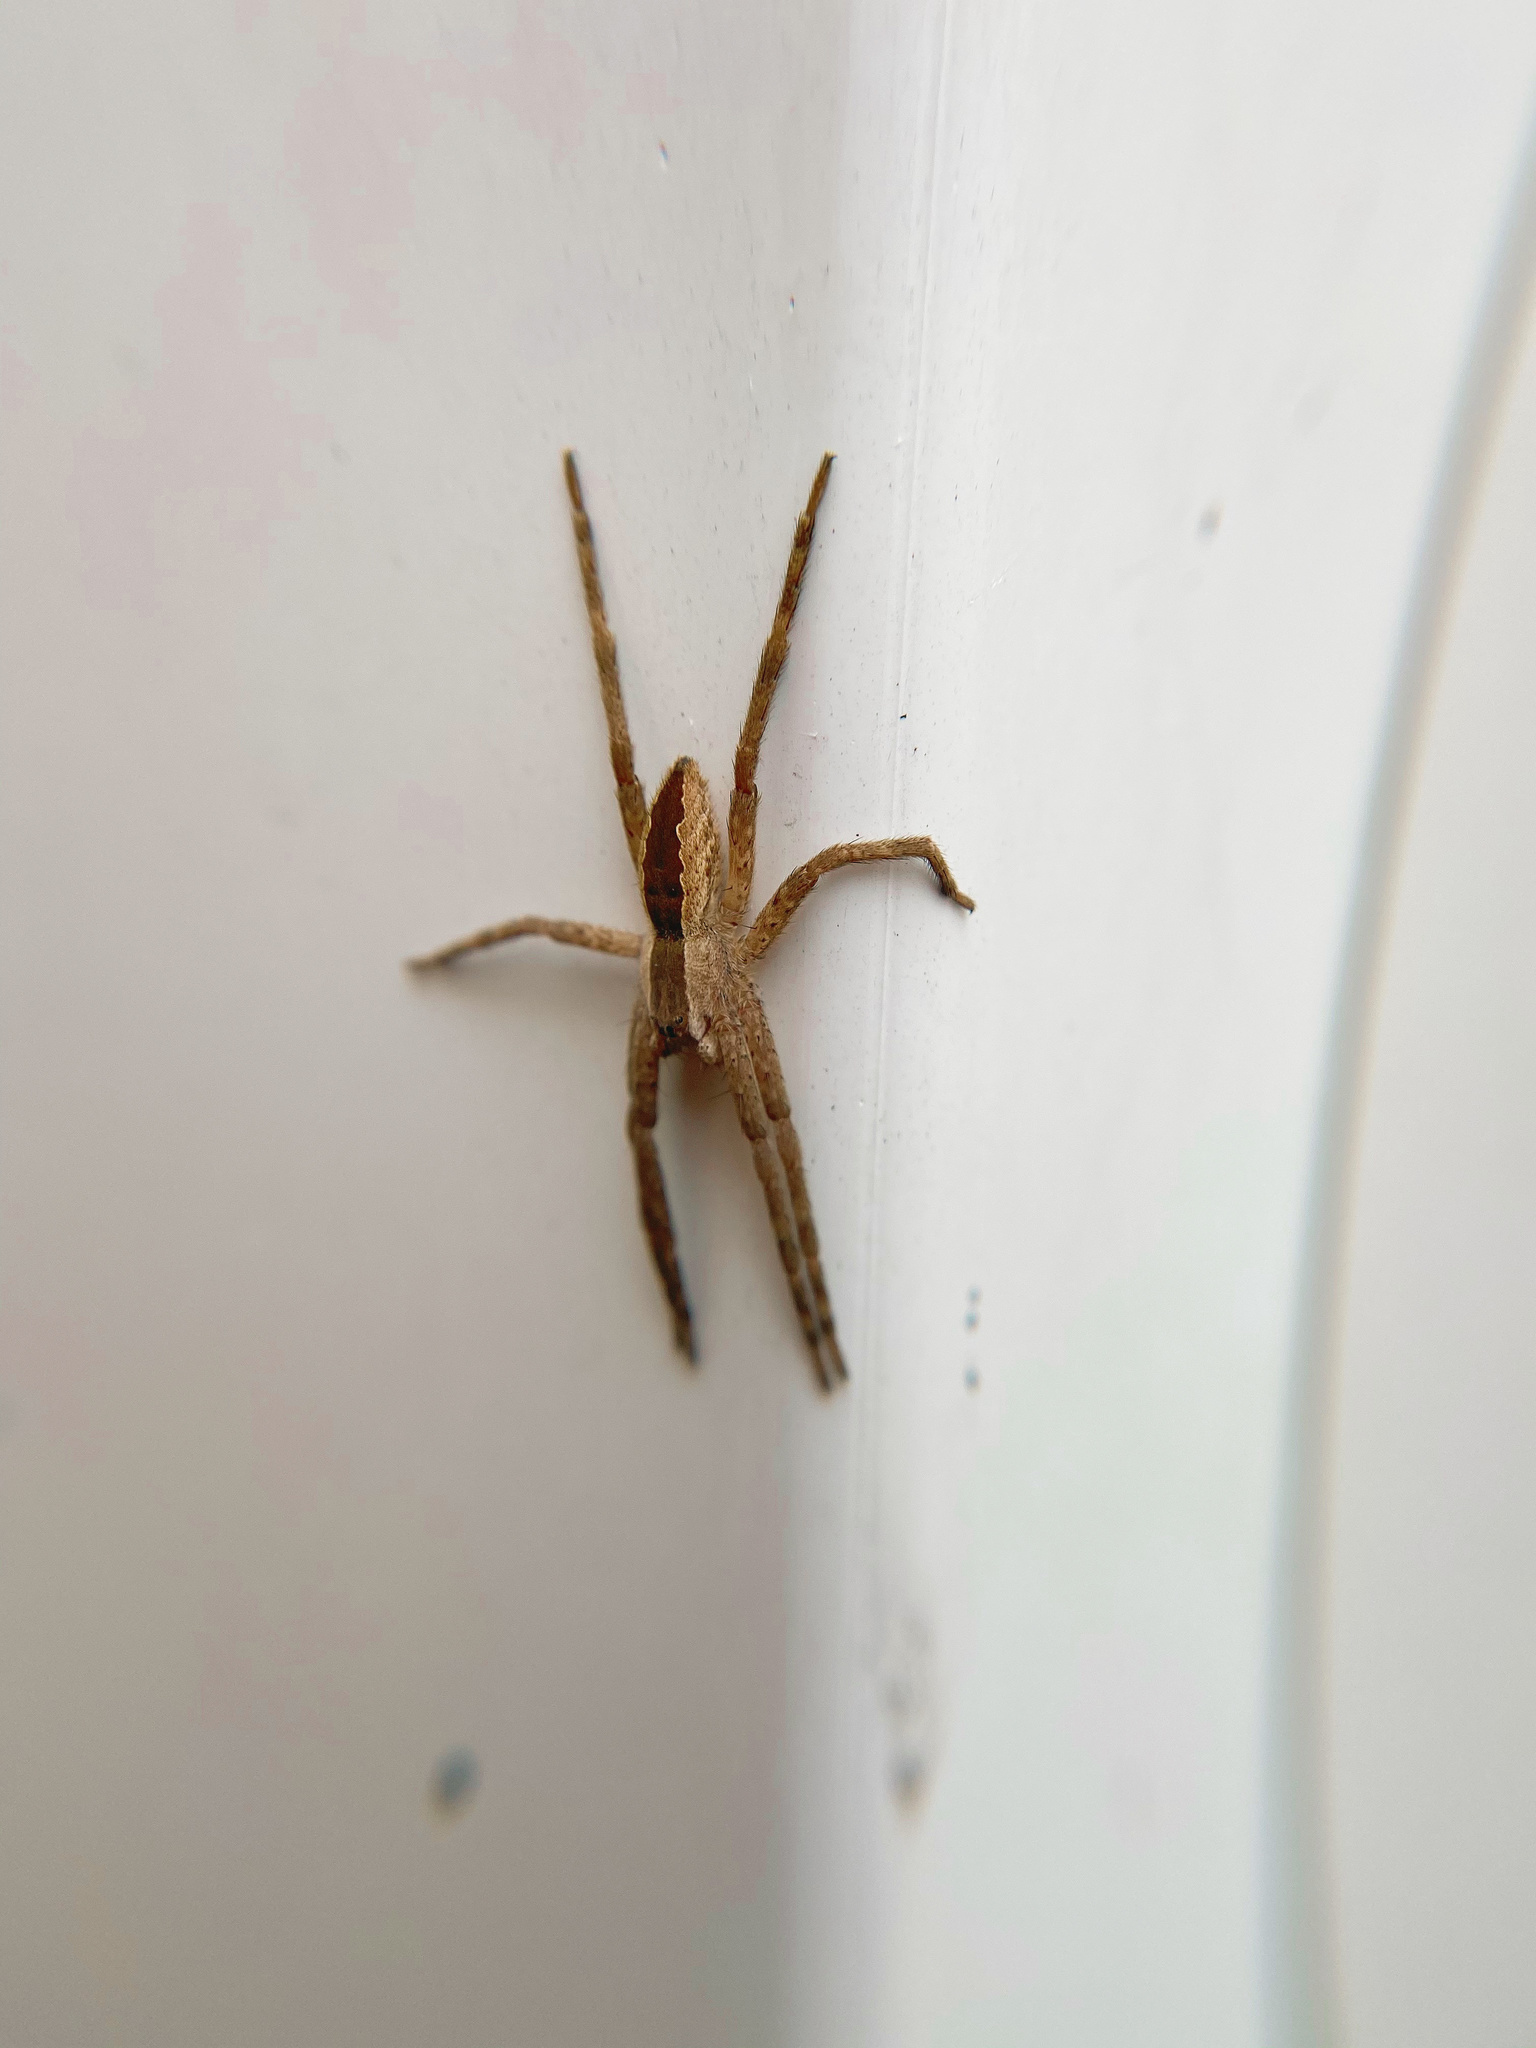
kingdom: Animalia
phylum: Arthropoda
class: Arachnida
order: Araneae
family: Pisauridae
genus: Pisaurina
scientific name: Pisaurina mira
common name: American nursery web spider
